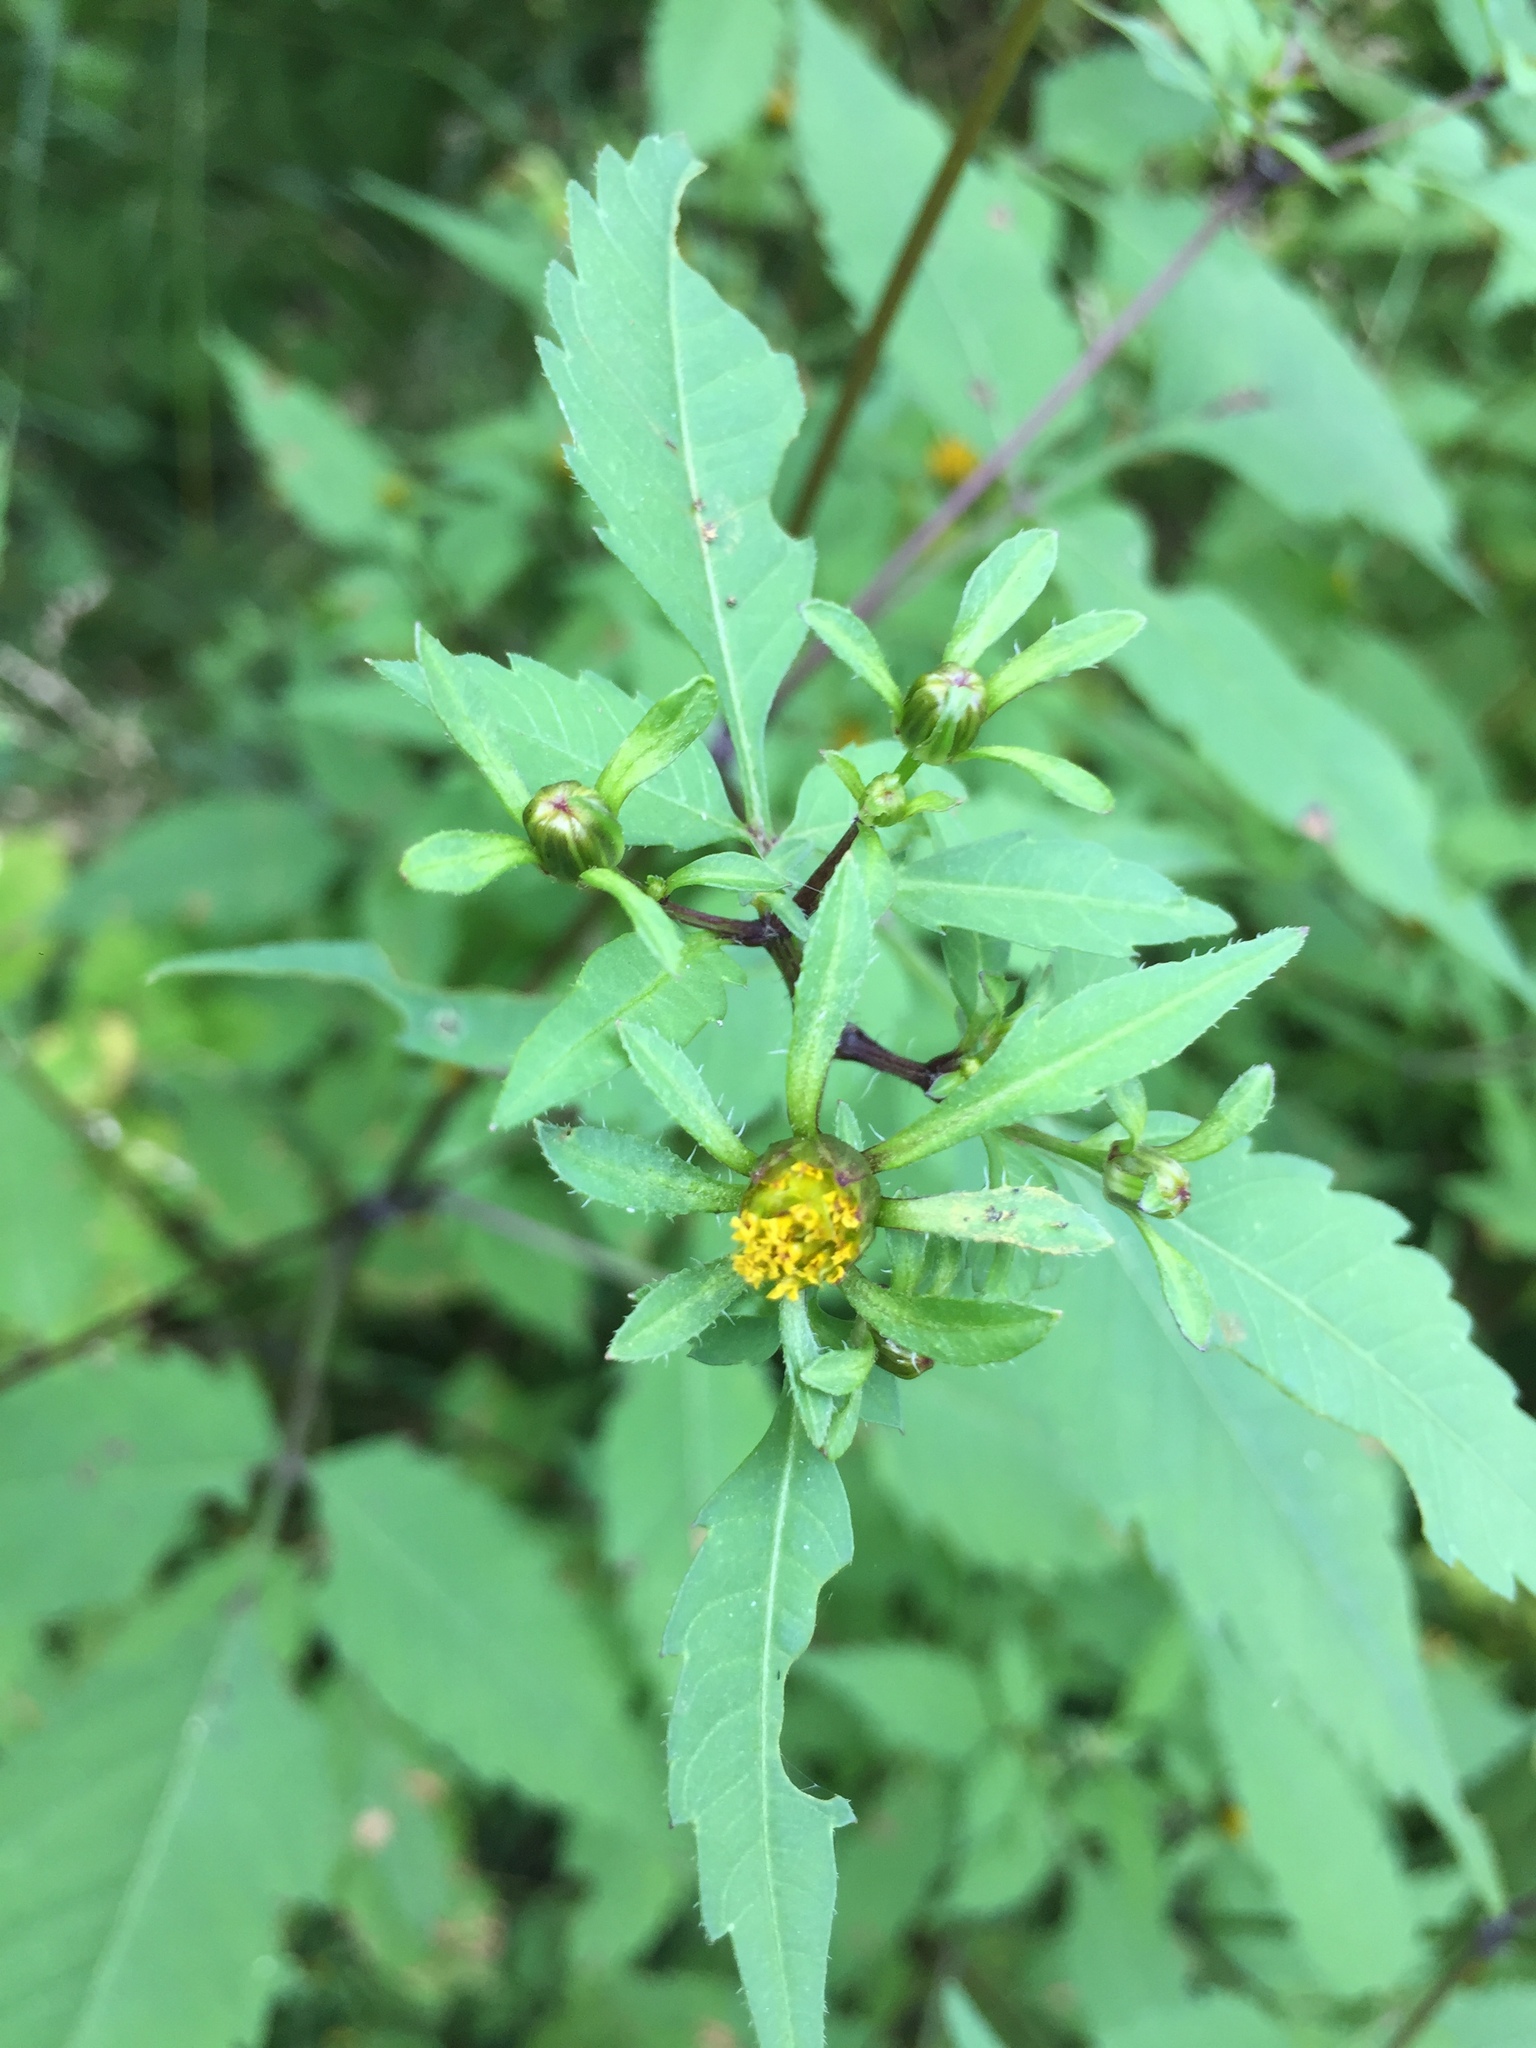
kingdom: Plantae
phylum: Tracheophyta
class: Magnoliopsida
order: Asterales
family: Asteraceae
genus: Bidens
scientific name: Bidens frondosa
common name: Beggarticks
